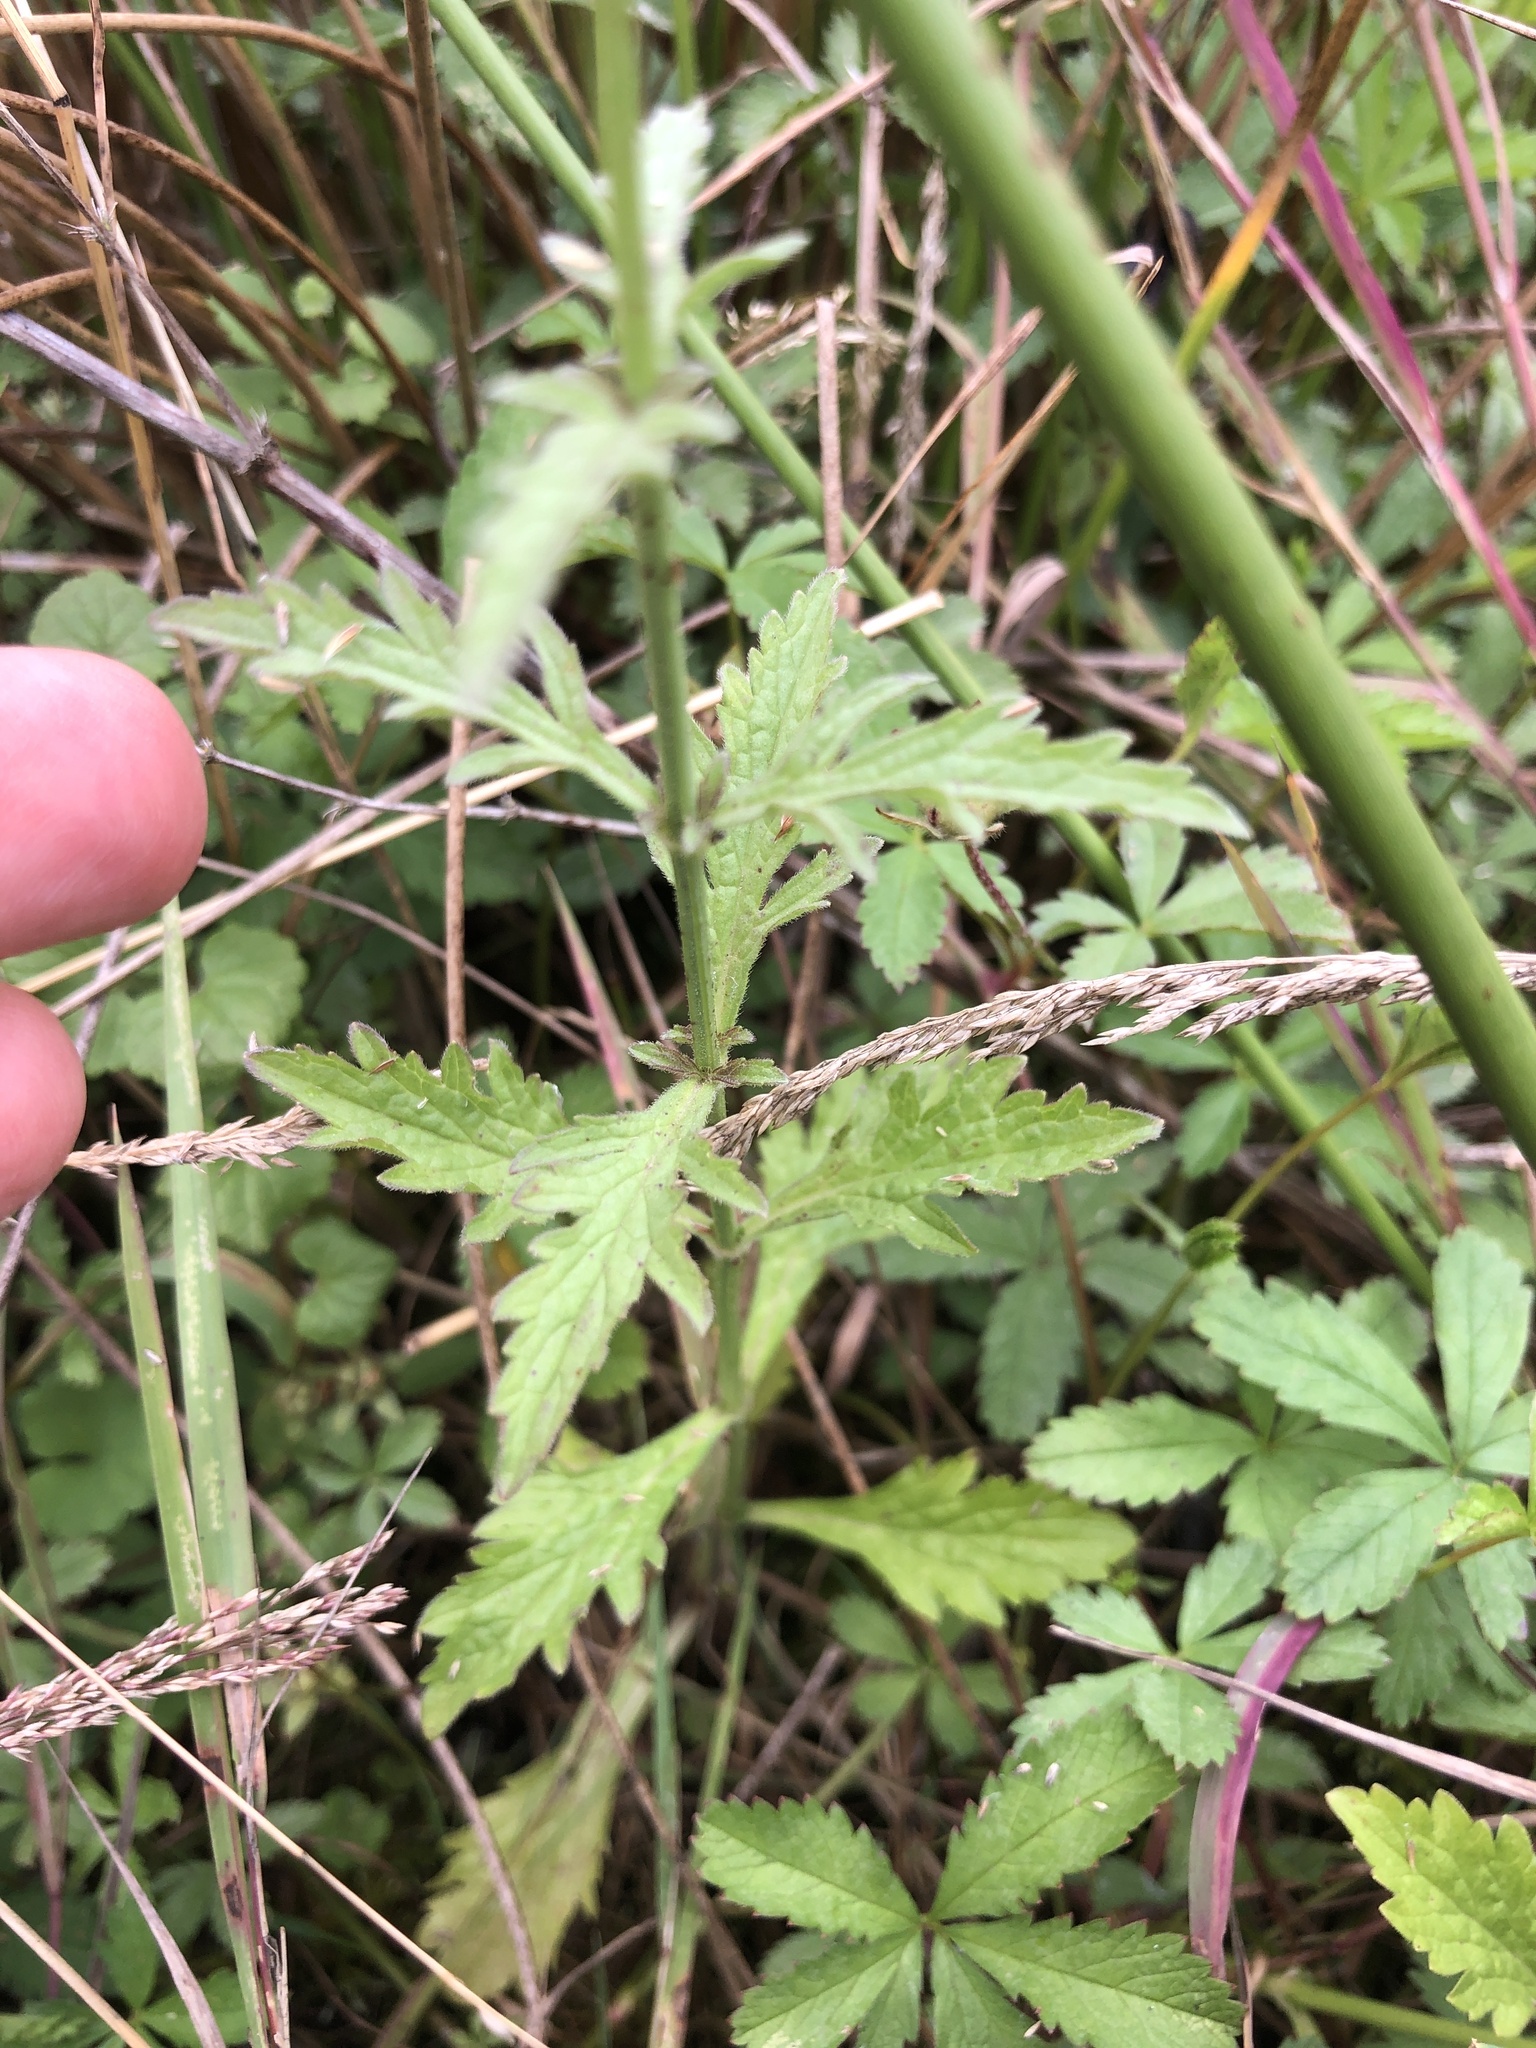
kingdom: Plantae
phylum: Tracheophyta
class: Magnoliopsida
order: Lamiales
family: Verbenaceae
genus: Verbena
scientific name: Verbena officinalis
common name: Vervain
